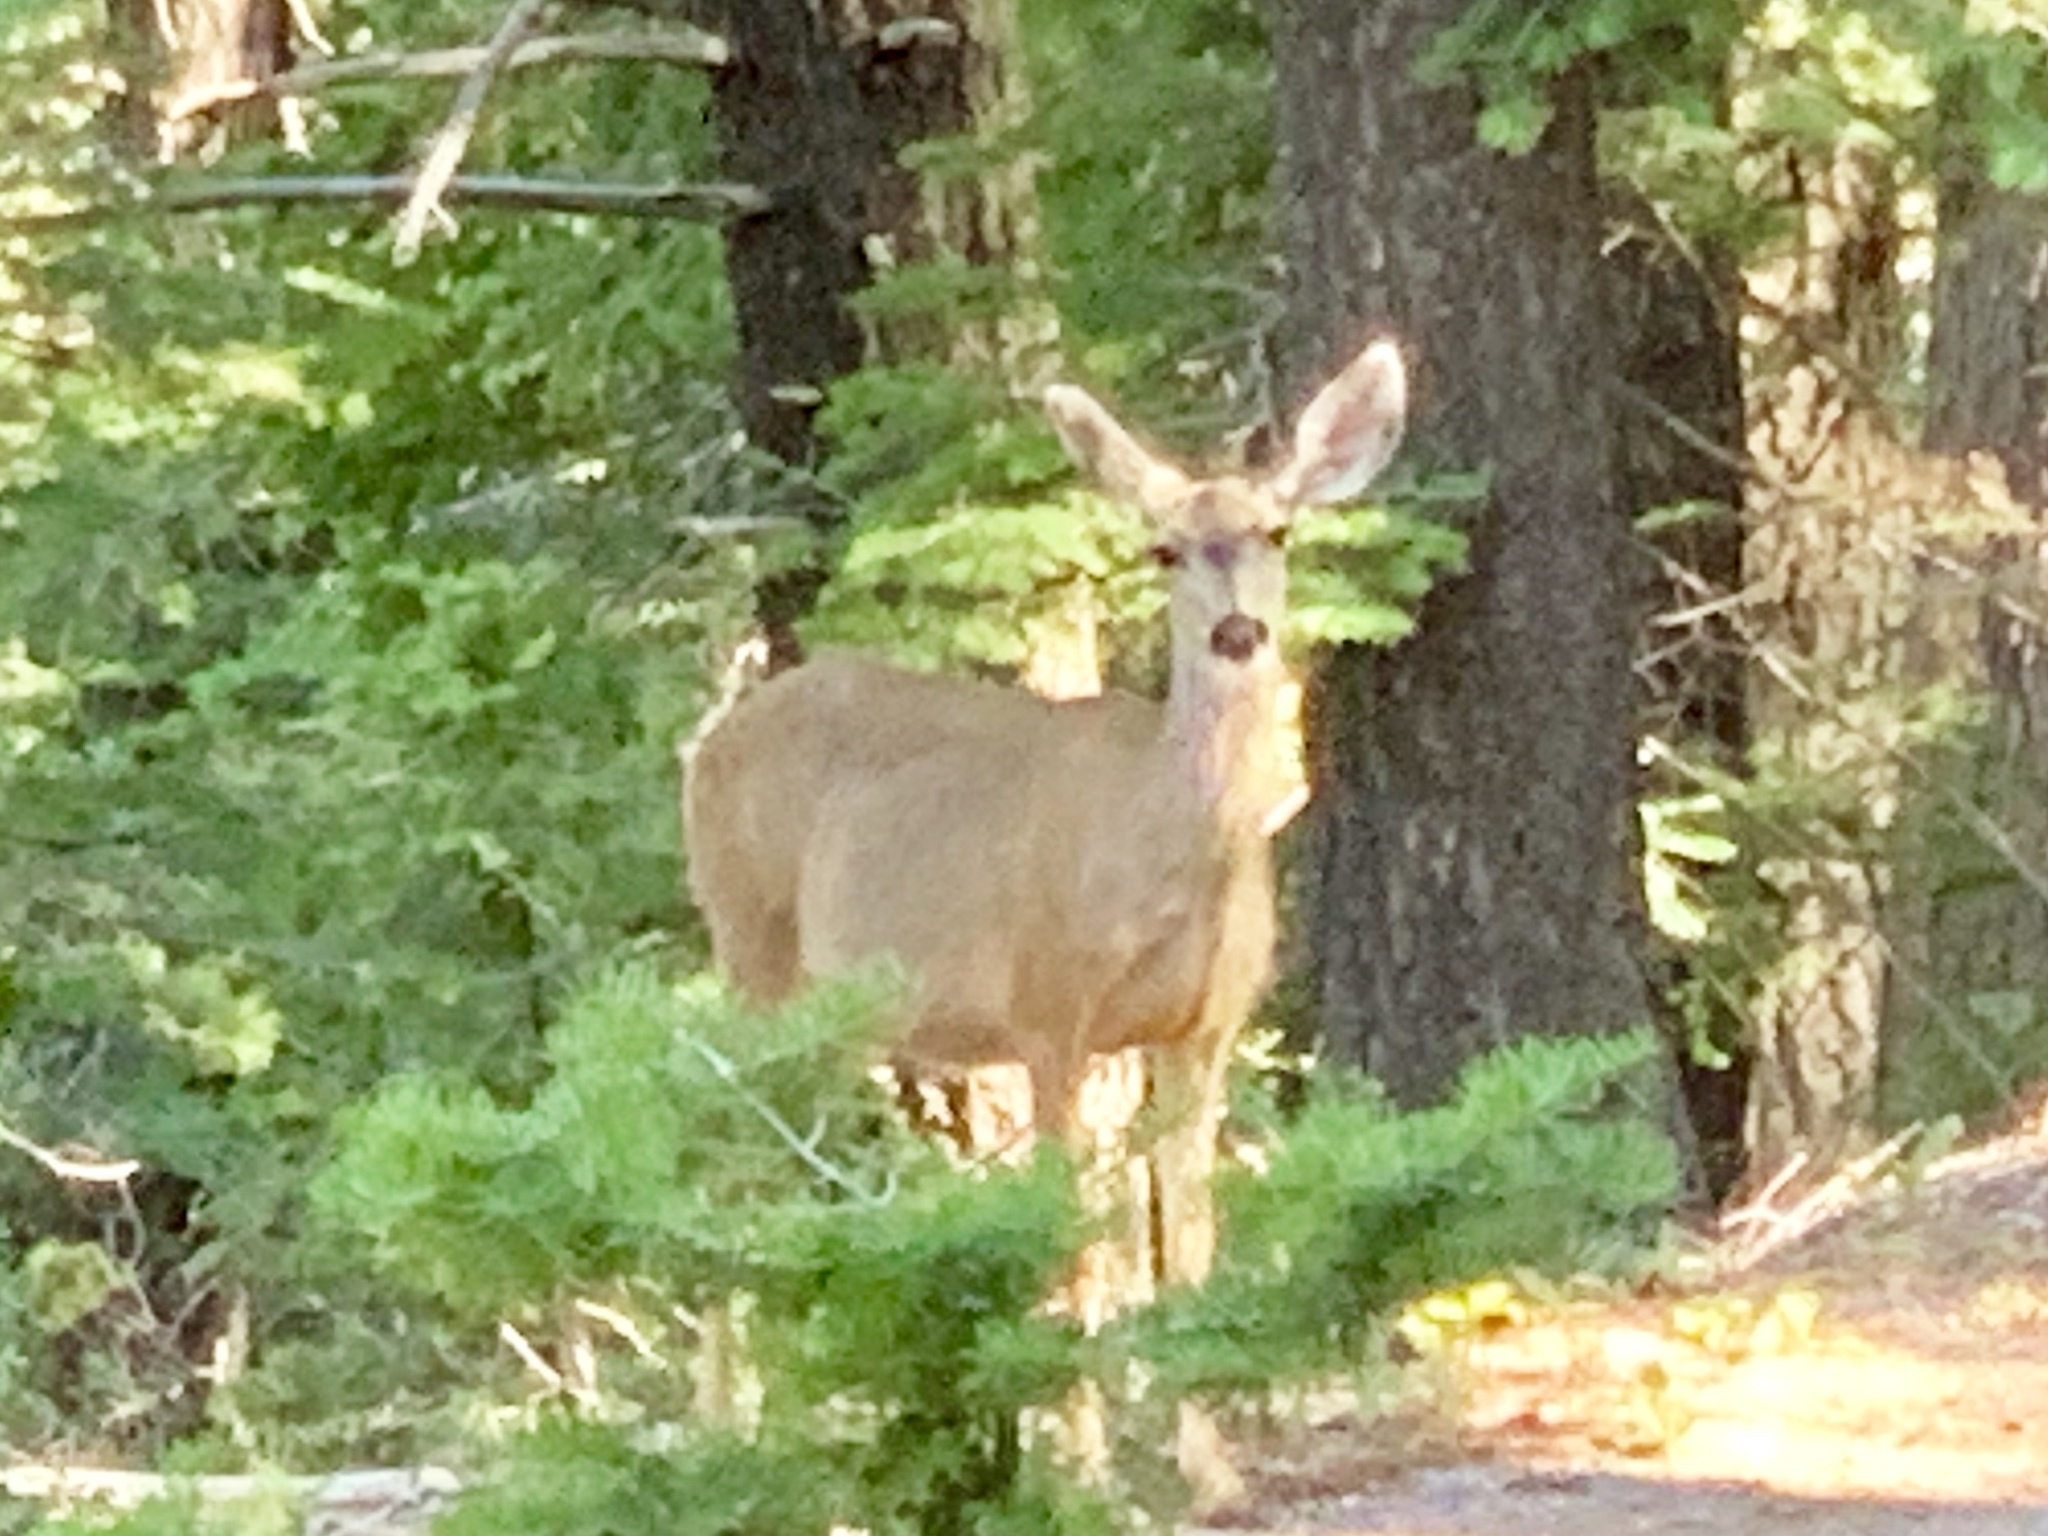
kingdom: Animalia
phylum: Chordata
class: Mammalia
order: Artiodactyla
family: Cervidae
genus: Odocoileus
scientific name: Odocoileus hemionus
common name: Mule deer
